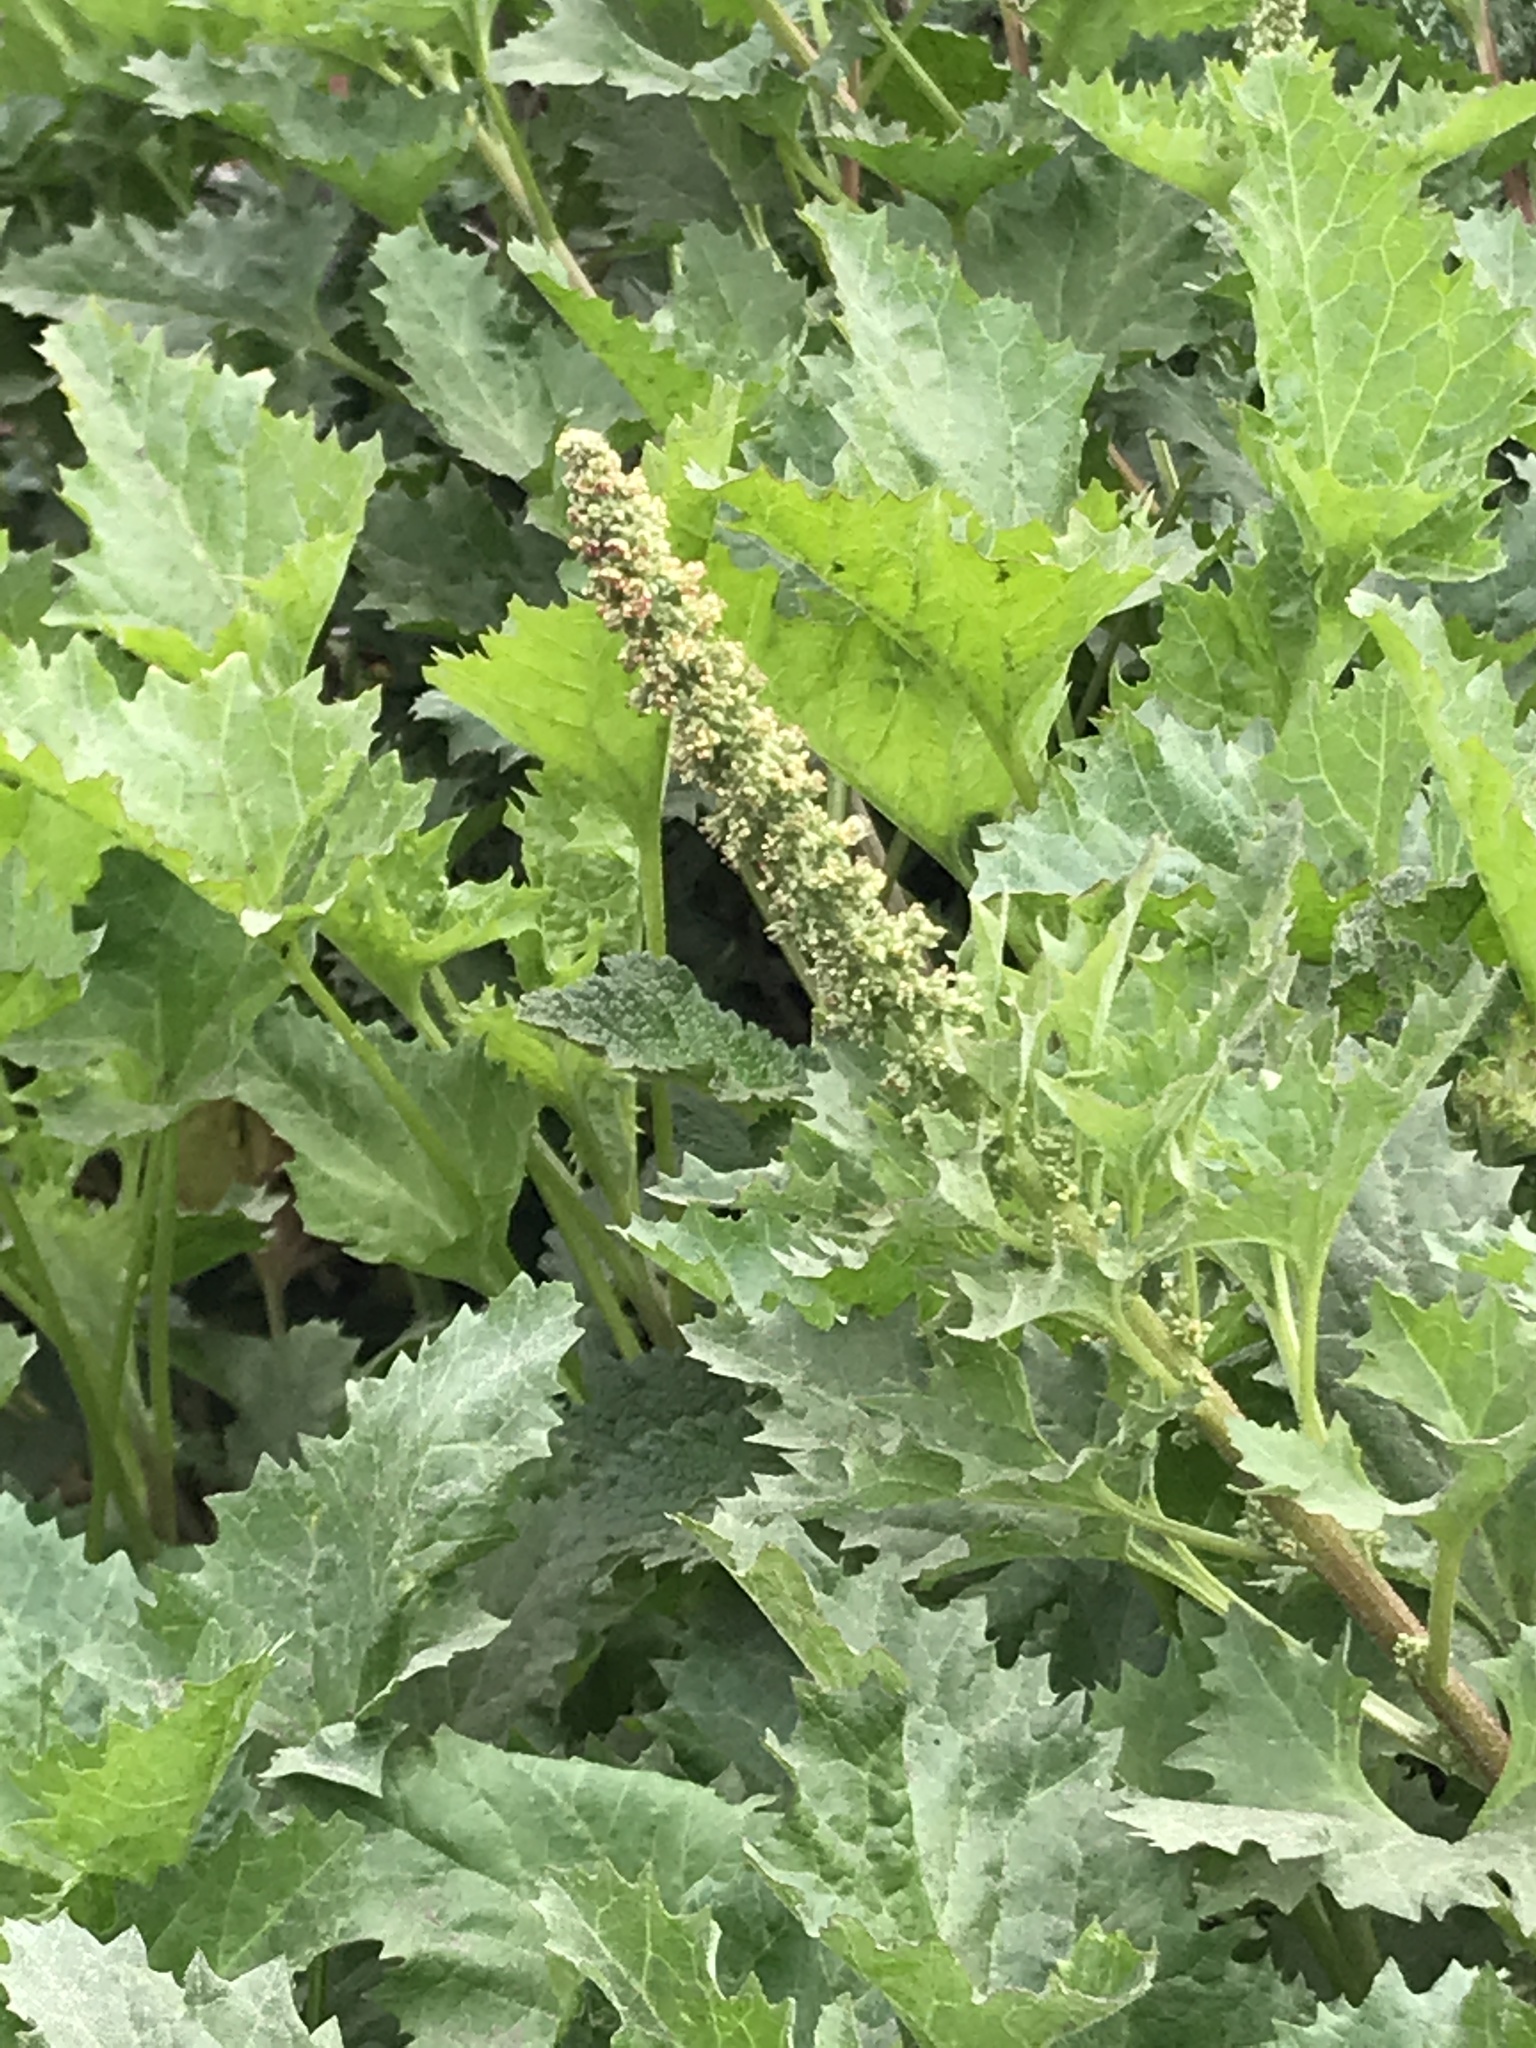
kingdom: Plantae
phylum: Tracheophyta
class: Magnoliopsida
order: Caryophyllales
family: Amaranthaceae
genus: Blitum
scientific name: Blitum californicum
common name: California goosefoot
